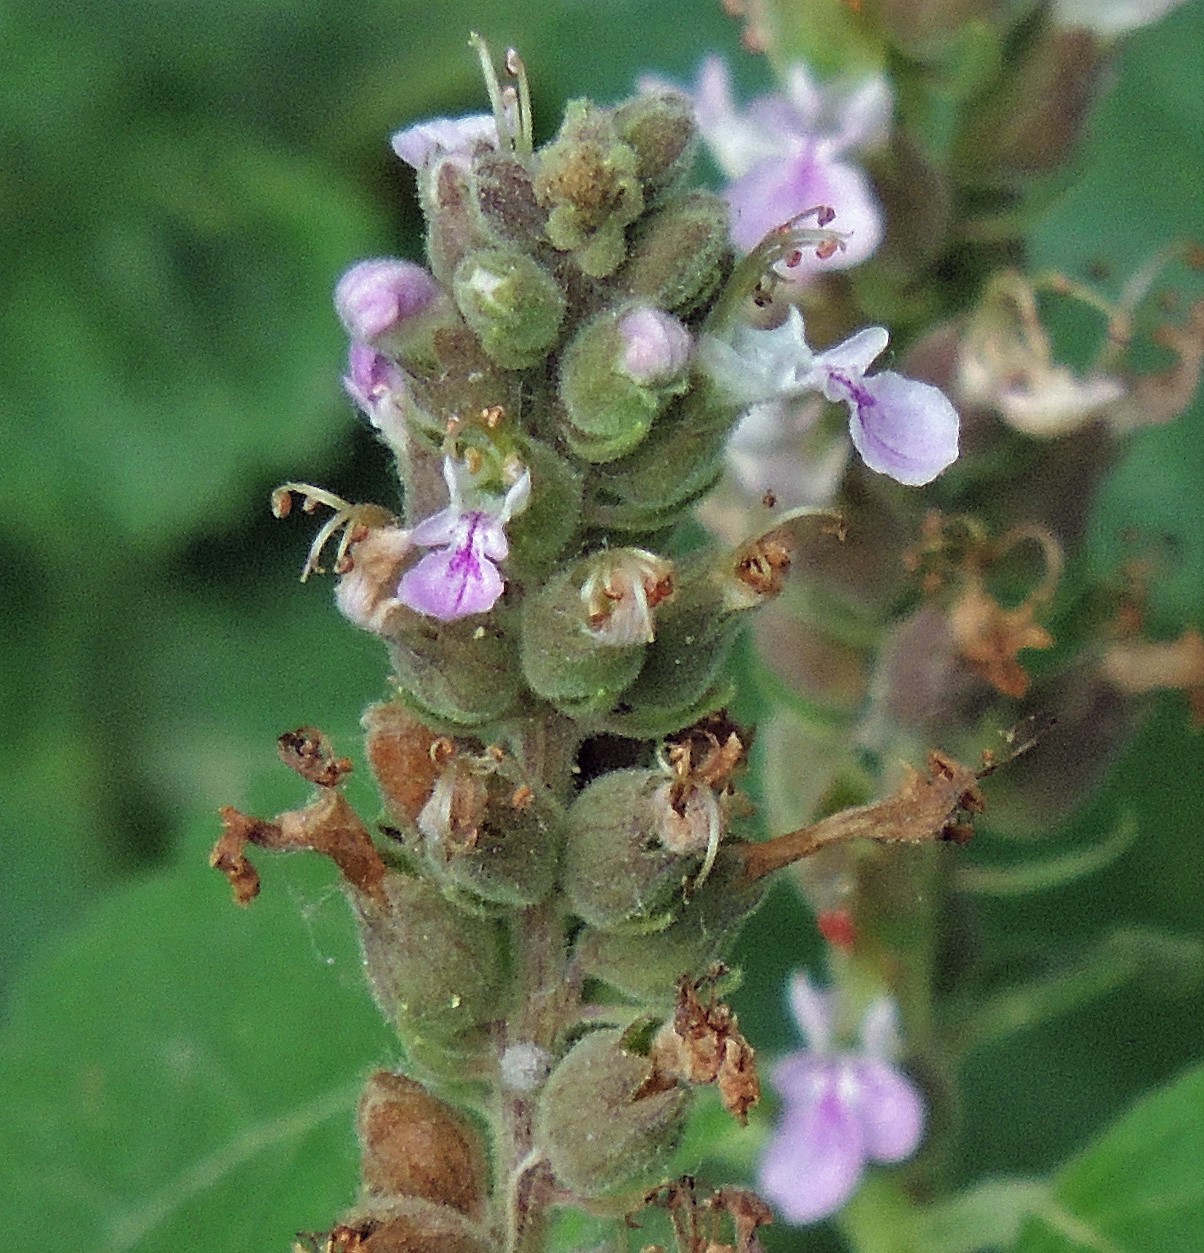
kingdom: Plantae
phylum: Tracheophyta
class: Magnoliopsida
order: Lamiales
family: Lamiaceae
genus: Teucrium
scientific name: Teucrium vesicarium
